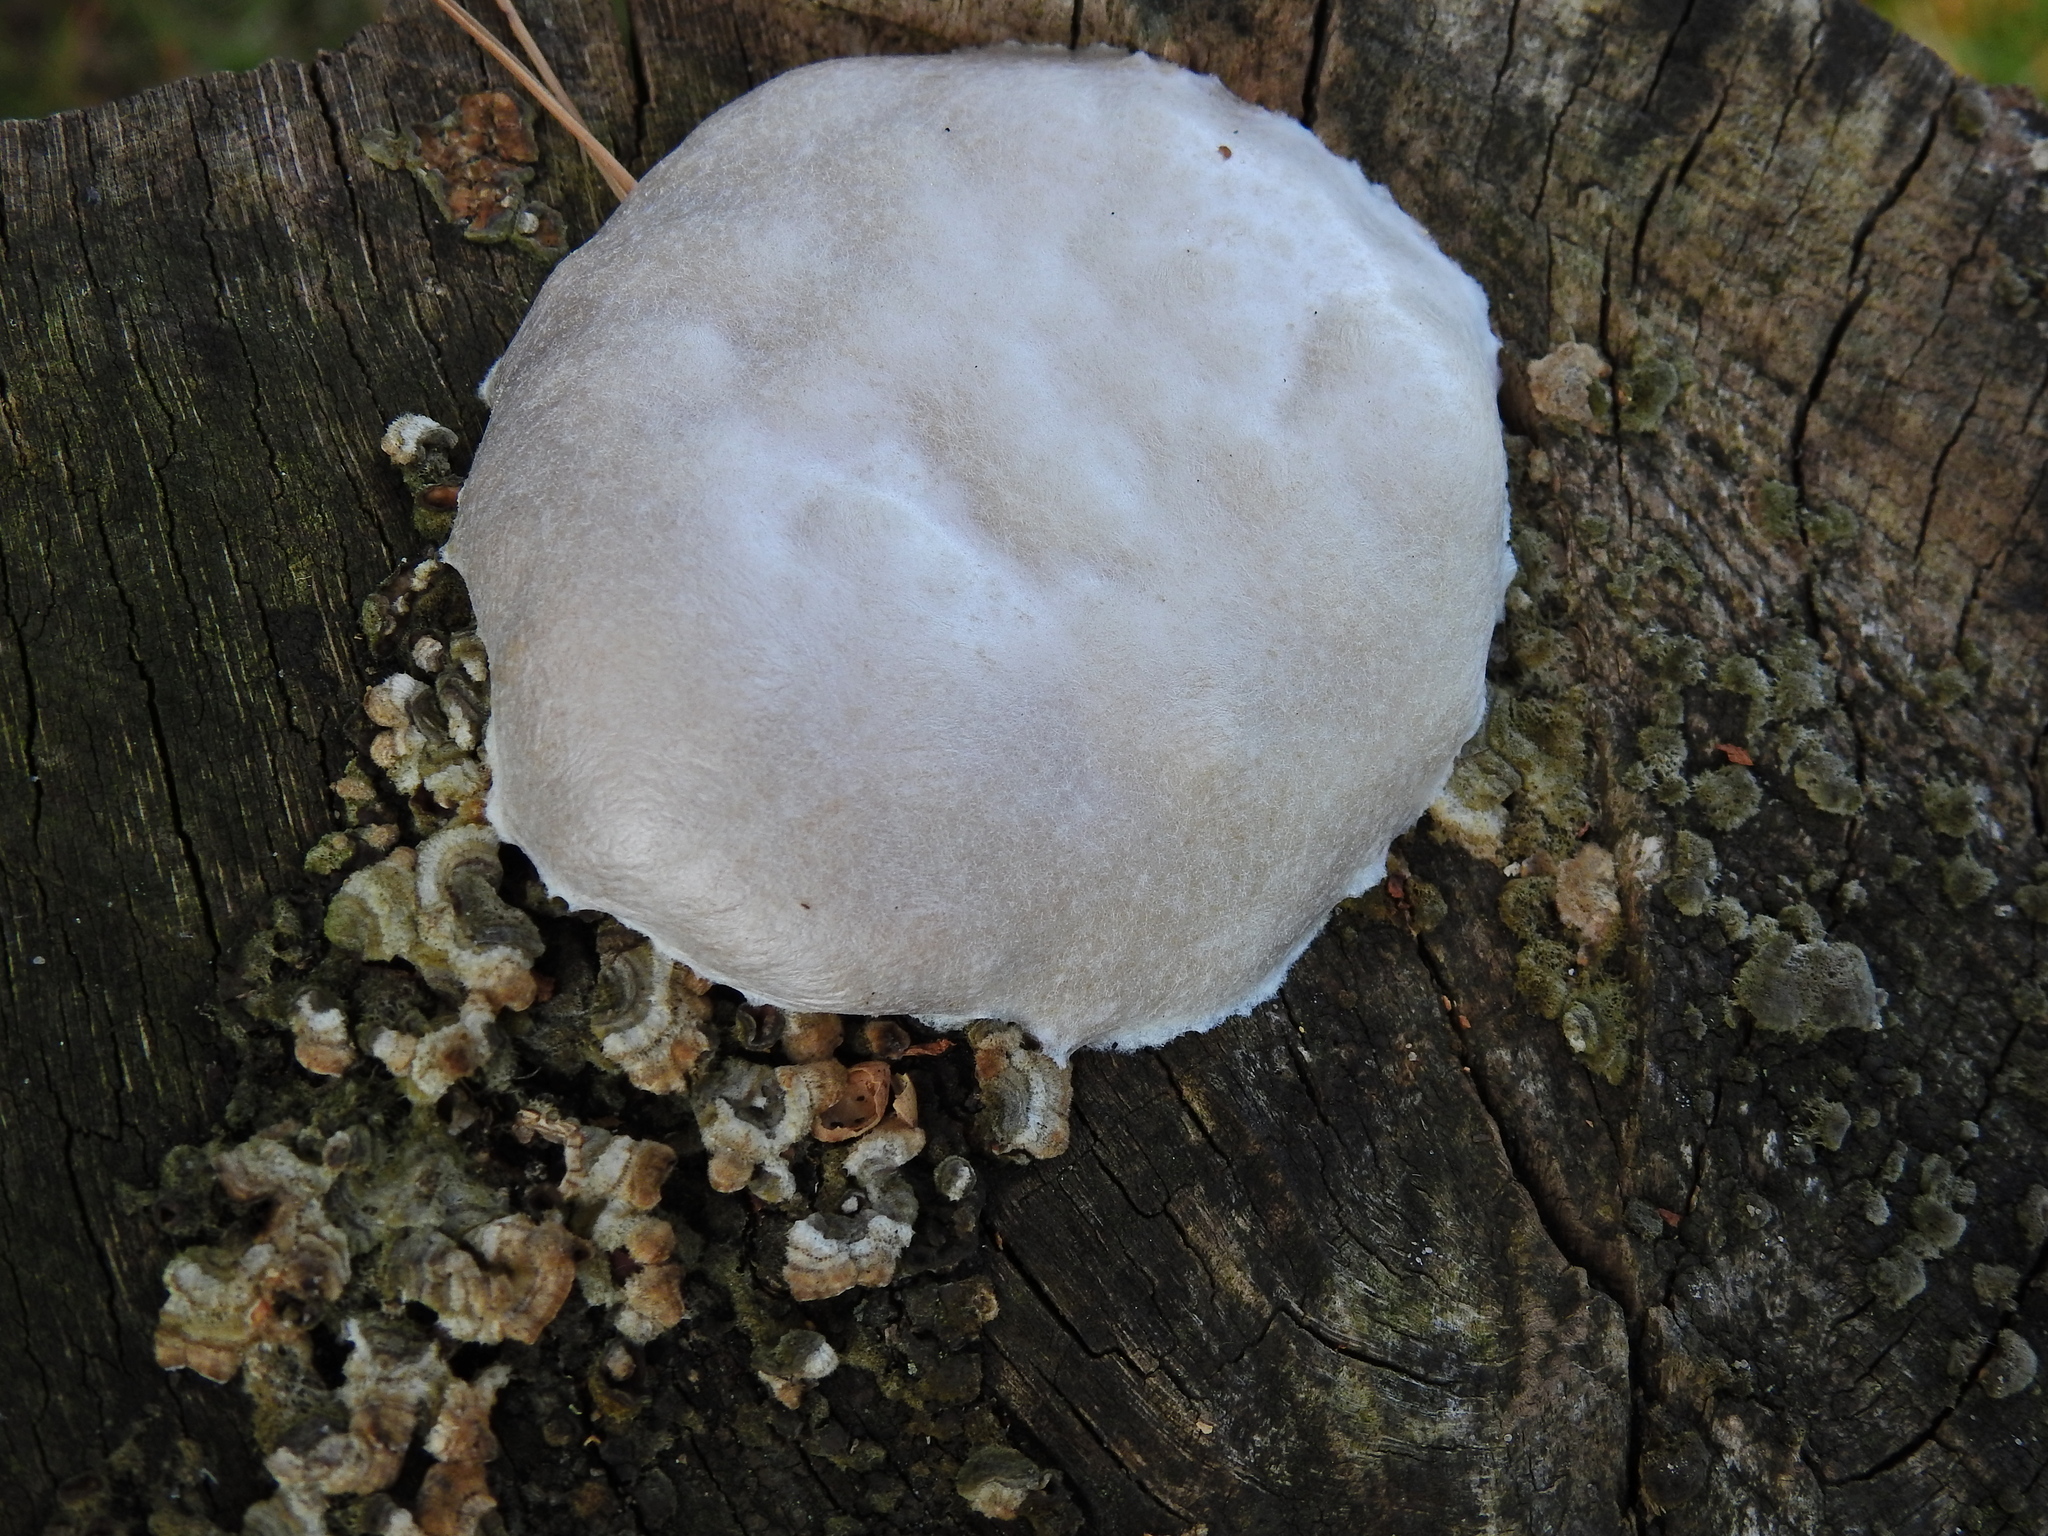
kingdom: Protozoa
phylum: Mycetozoa
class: Myxomycetes
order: Cribrariales
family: Tubiferaceae
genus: Reticularia
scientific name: Reticularia lycoperdon
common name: False puffball
